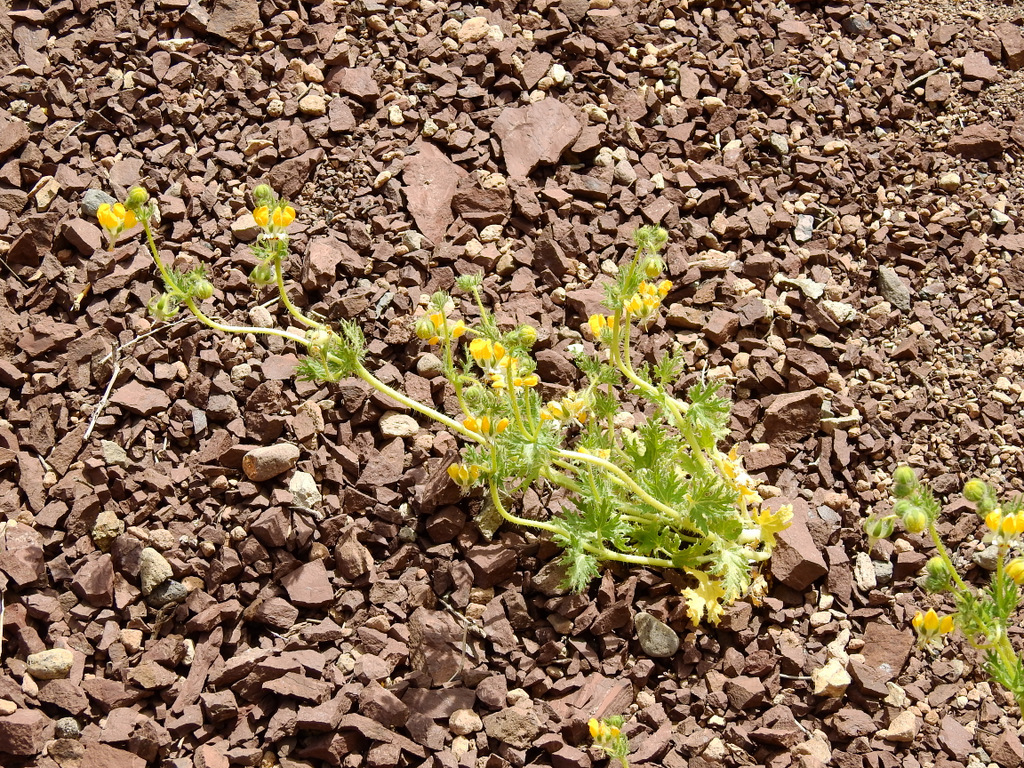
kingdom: Plantae
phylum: Tracheophyta
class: Magnoliopsida
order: Cornales
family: Loasaceae
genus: Loasa
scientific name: Loasa mendocina
